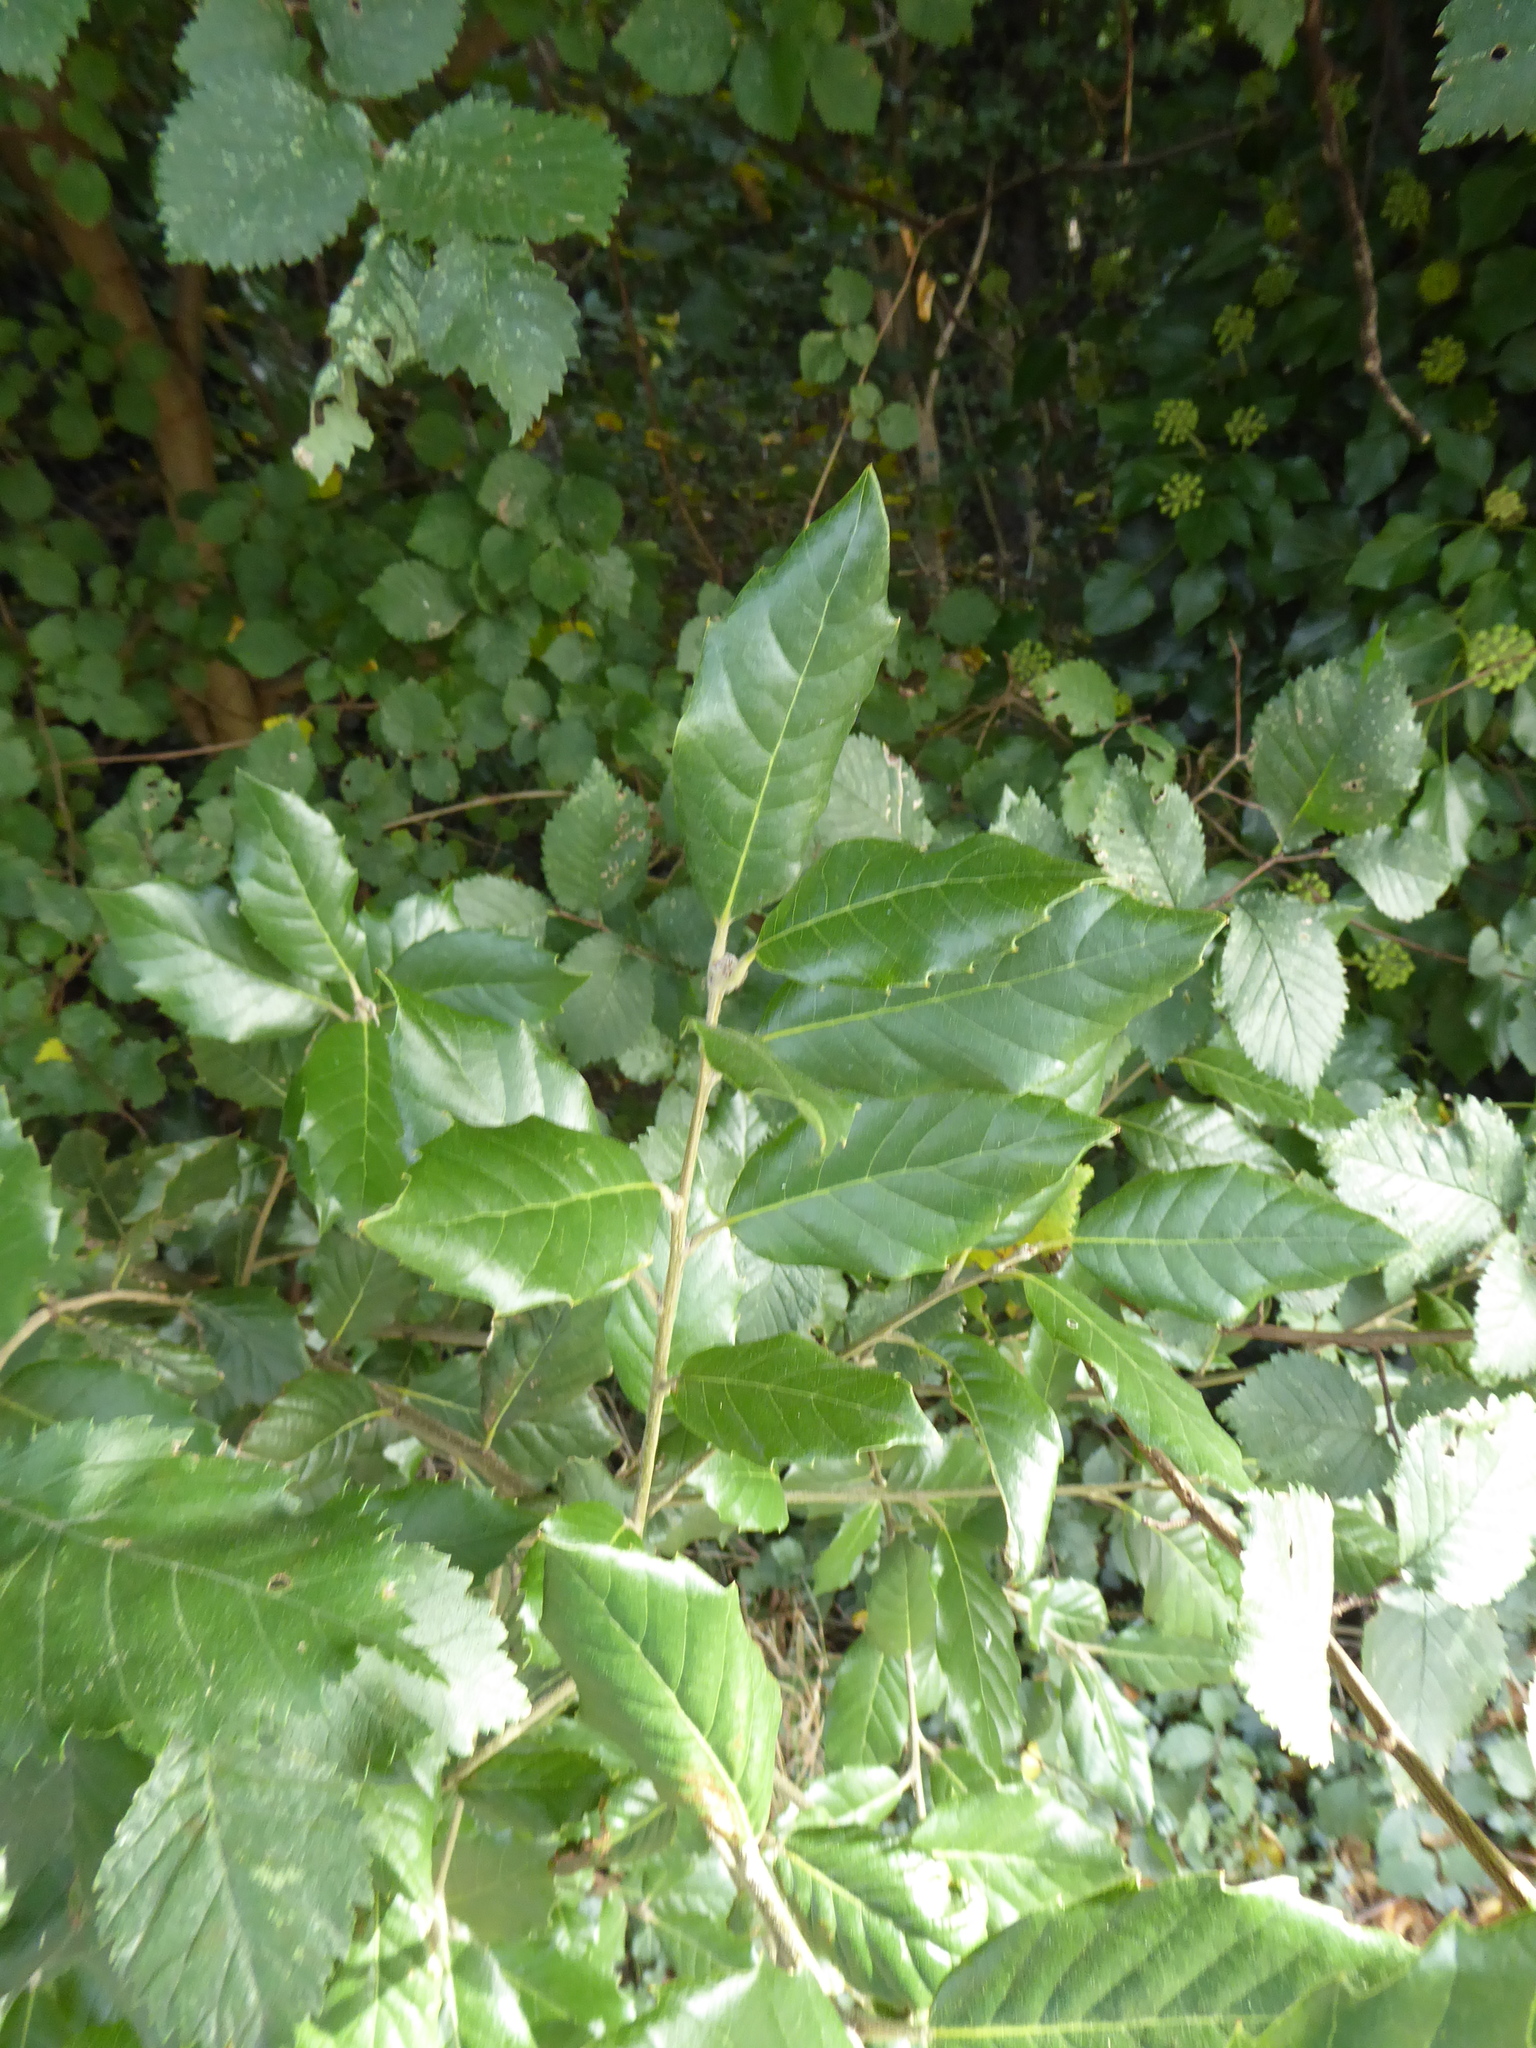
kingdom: Plantae
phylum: Tracheophyta
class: Magnoliopsida
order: Fagales
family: Fagaceae
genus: Quercus
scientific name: Quercus ilex
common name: Evergreen oak
